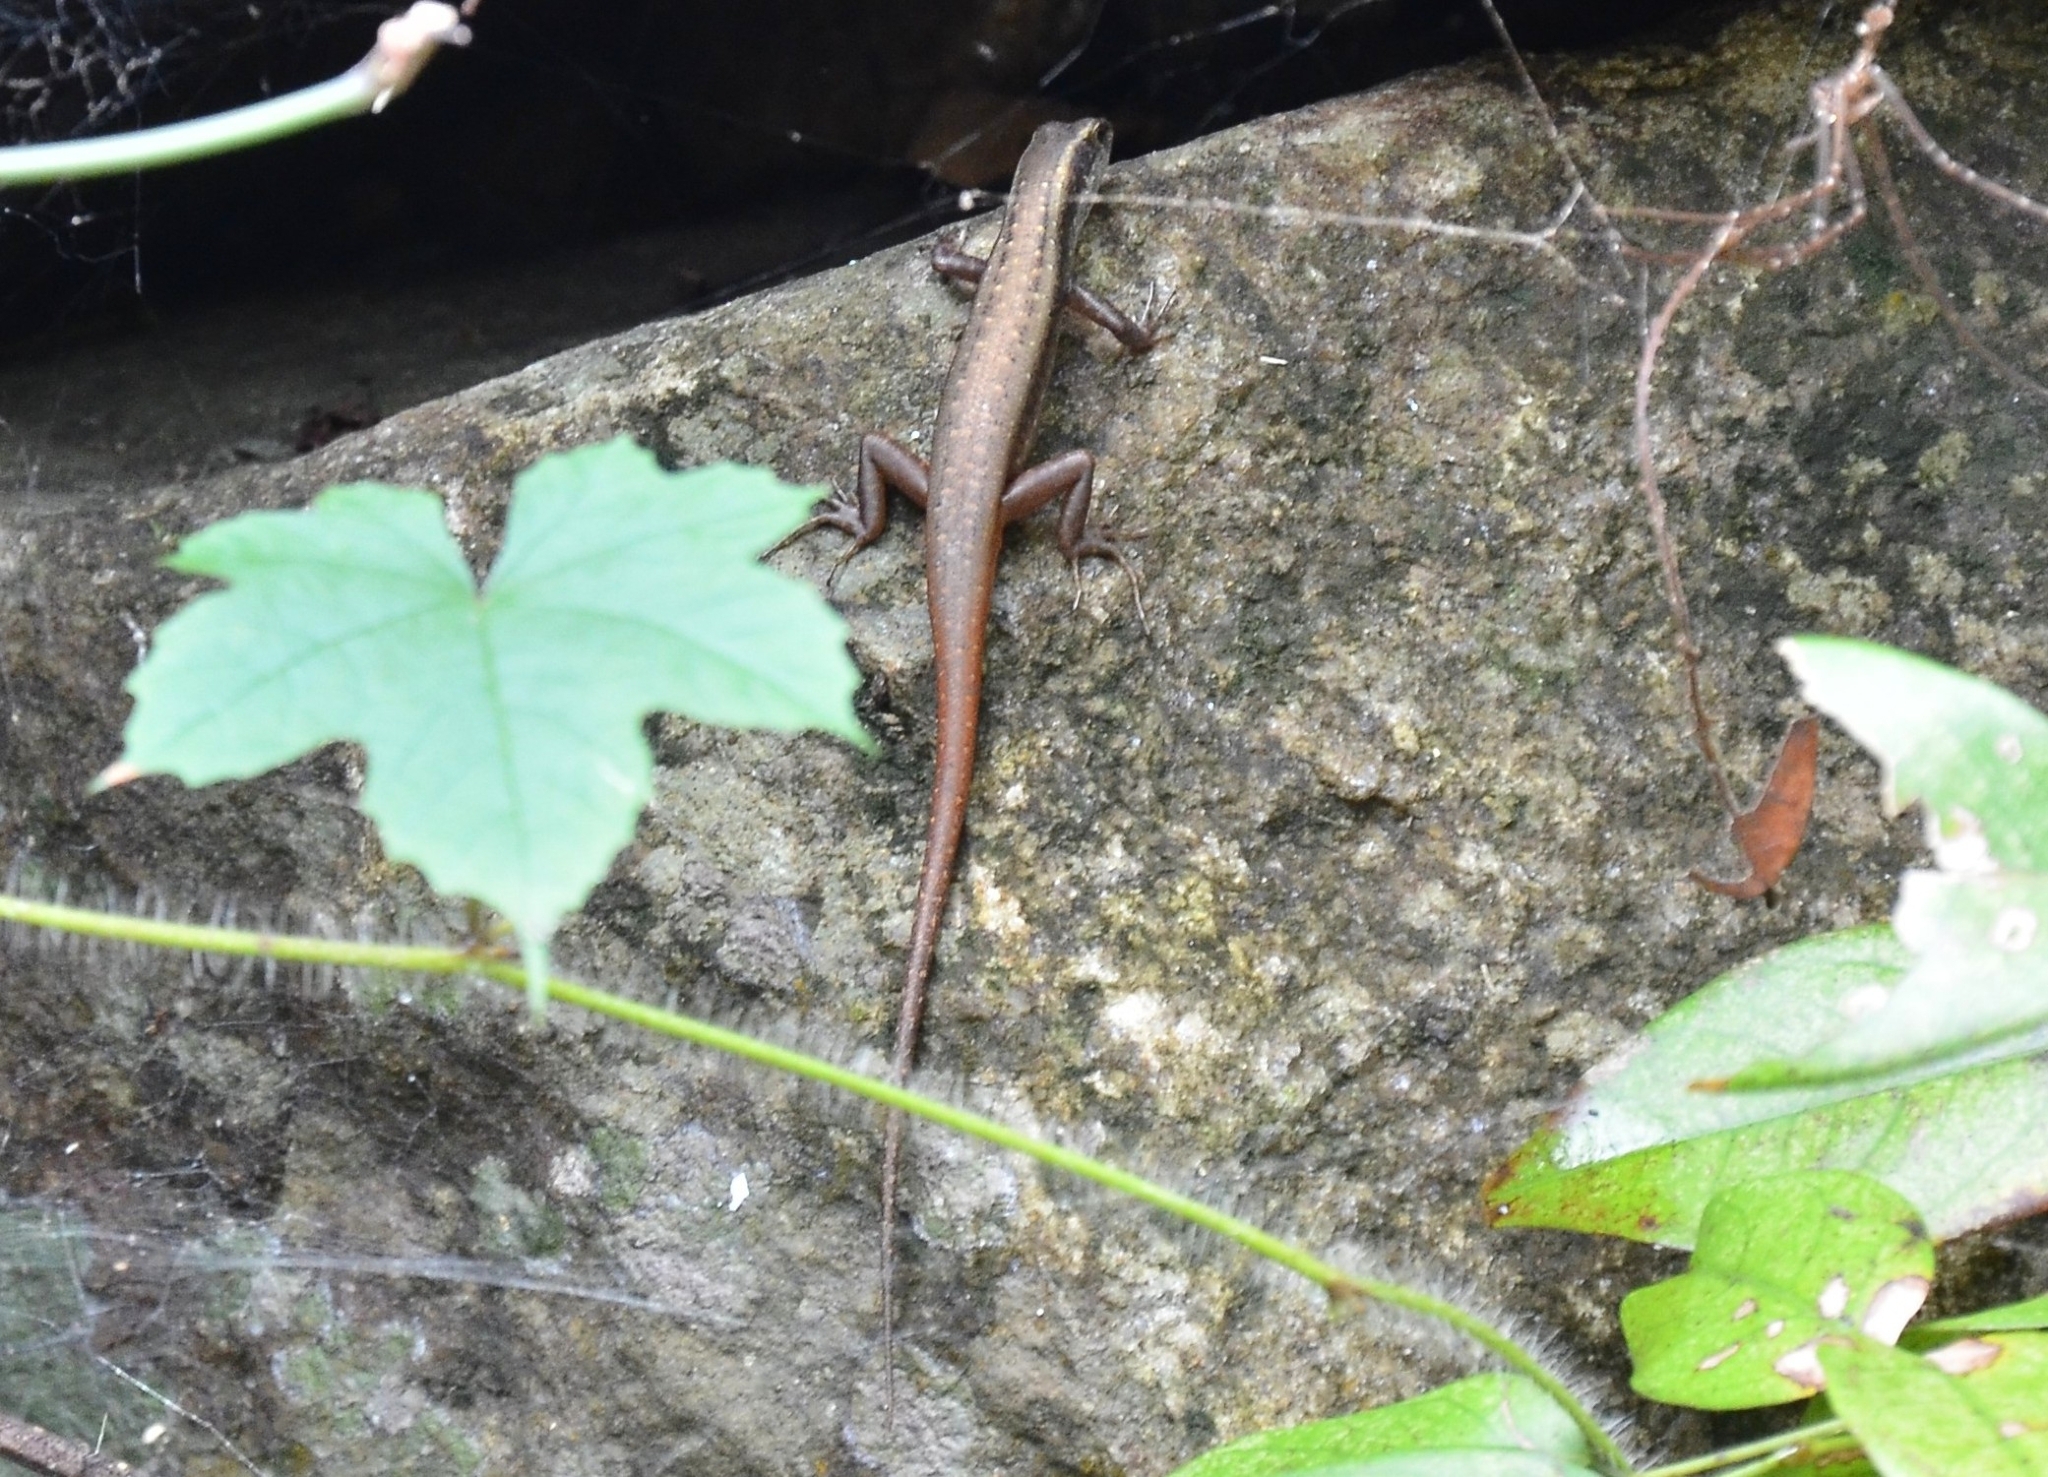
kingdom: Animalia
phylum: Chordata
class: Squamata
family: Scincidae
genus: Sphenomorphus
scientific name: Sphenomorphus dussumieri
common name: Dussumier's forest skink
